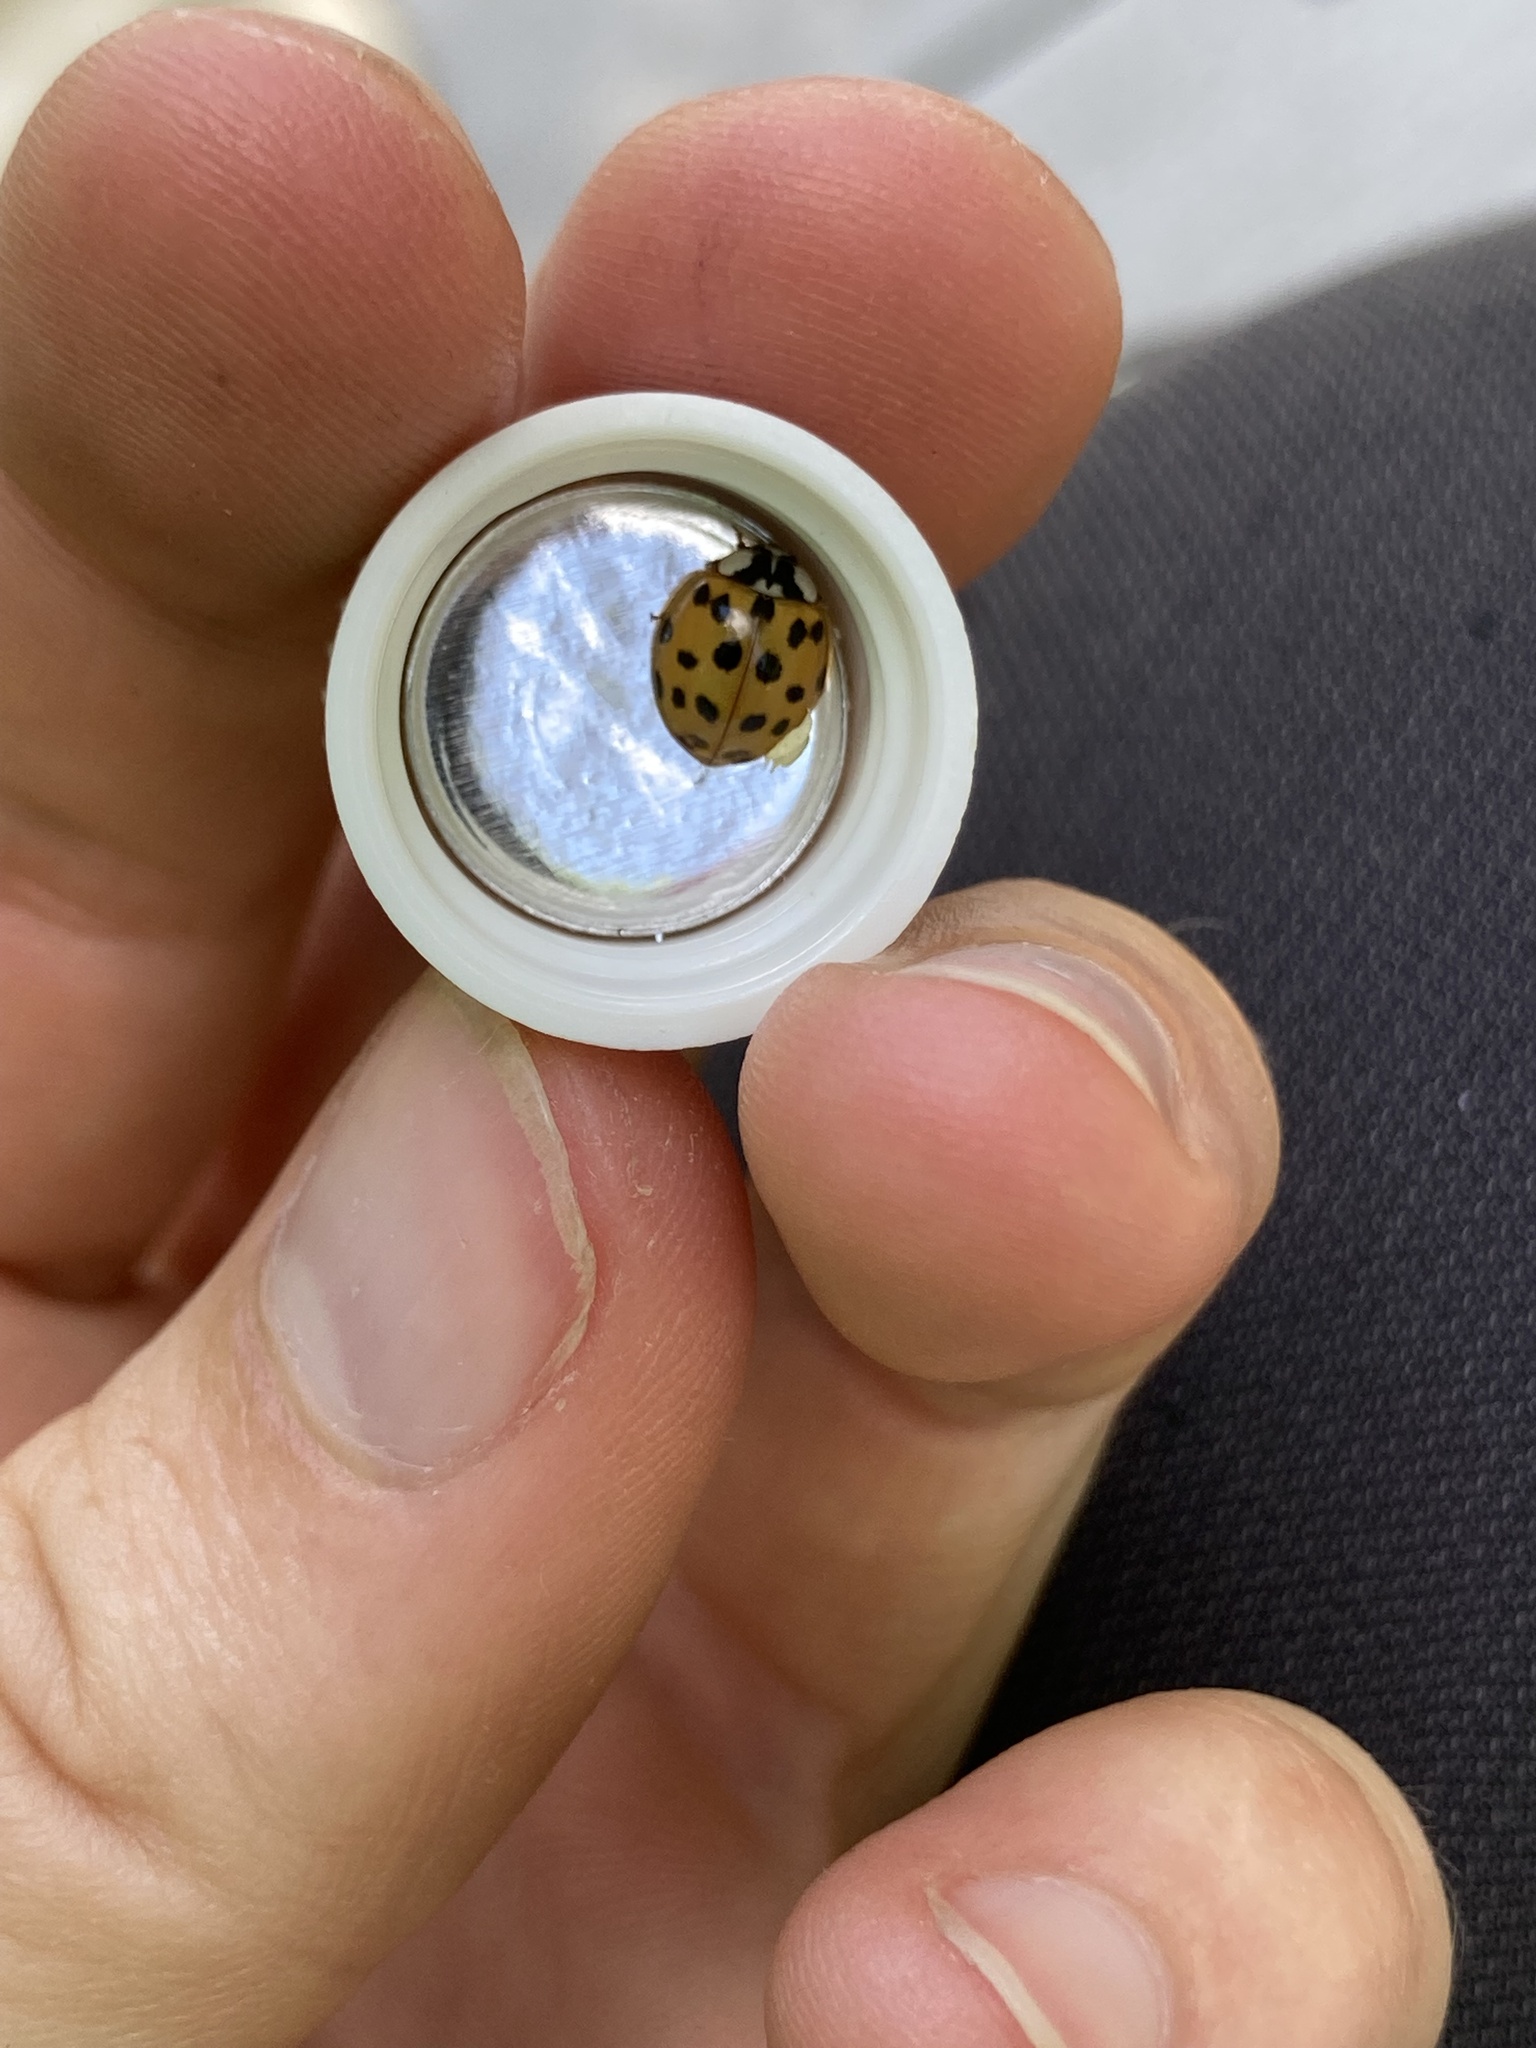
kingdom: Animalia
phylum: Arthropoda
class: Insecta
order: Coleoptera
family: Coccinellidae
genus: Harmonia
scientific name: Harmonia axyridis
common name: Harlequin ladybird
